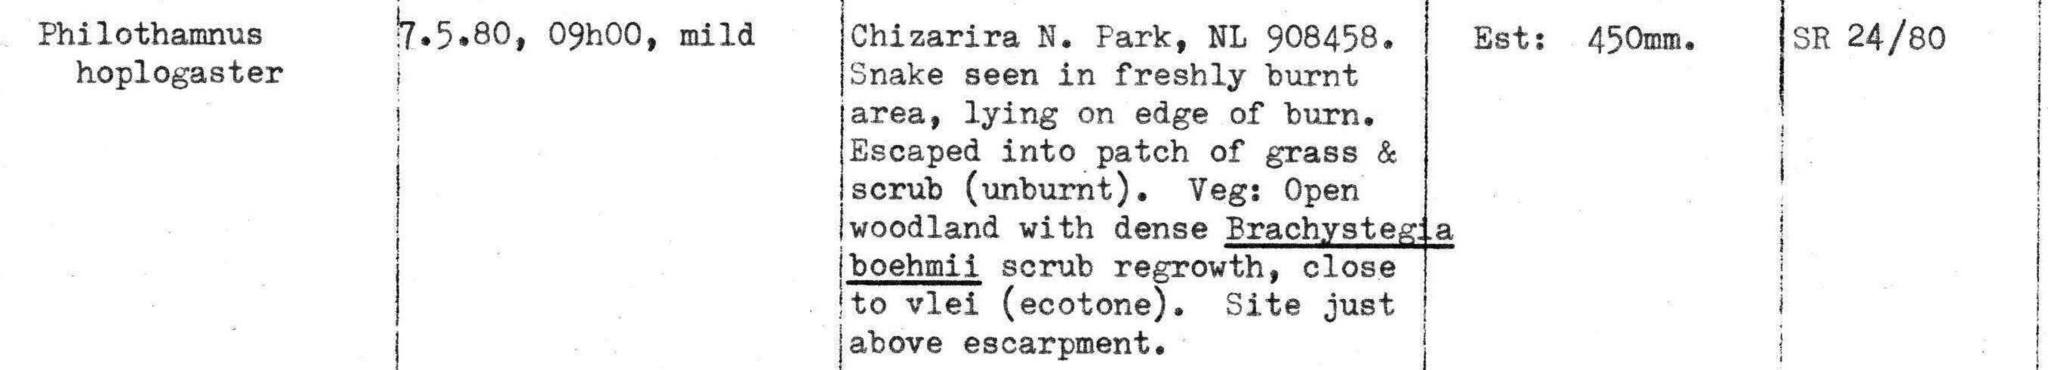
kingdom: Animalia
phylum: Chordata
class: Squamata
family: Colubridae
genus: Philothamnus
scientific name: Philothamnus hoplogaster
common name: Green water snake
